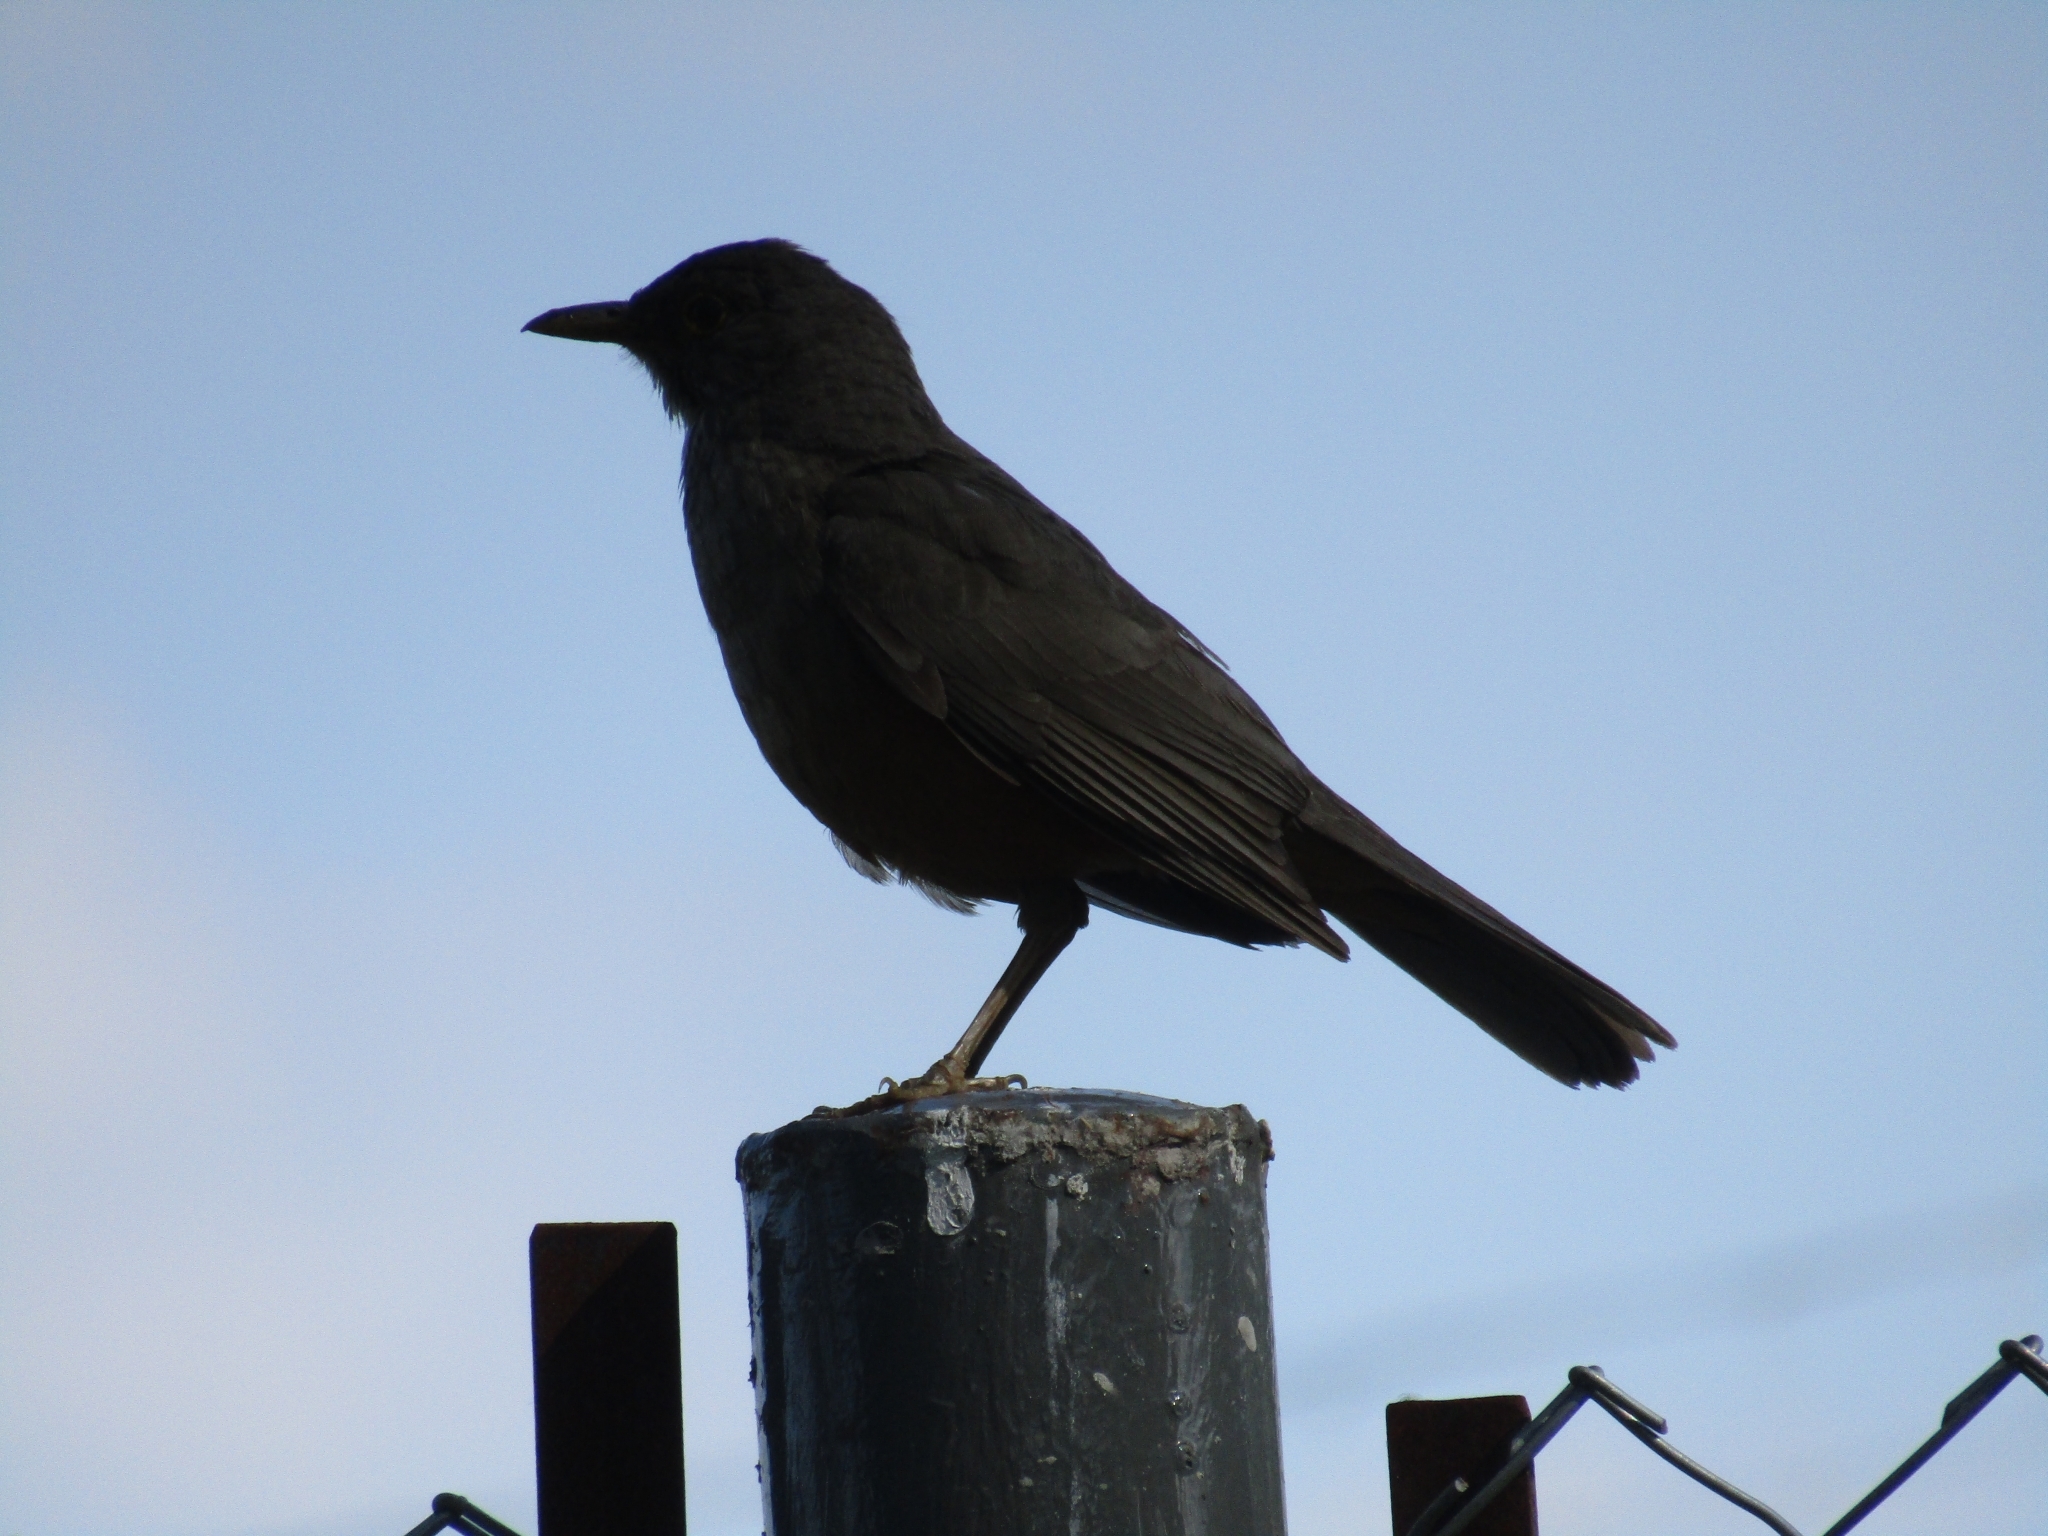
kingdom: Animalia
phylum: Chordata
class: Aves
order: Passeriformes
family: Turdidae
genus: Turdus
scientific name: Turdus rufiventris
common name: Rufous-bellied thrush
